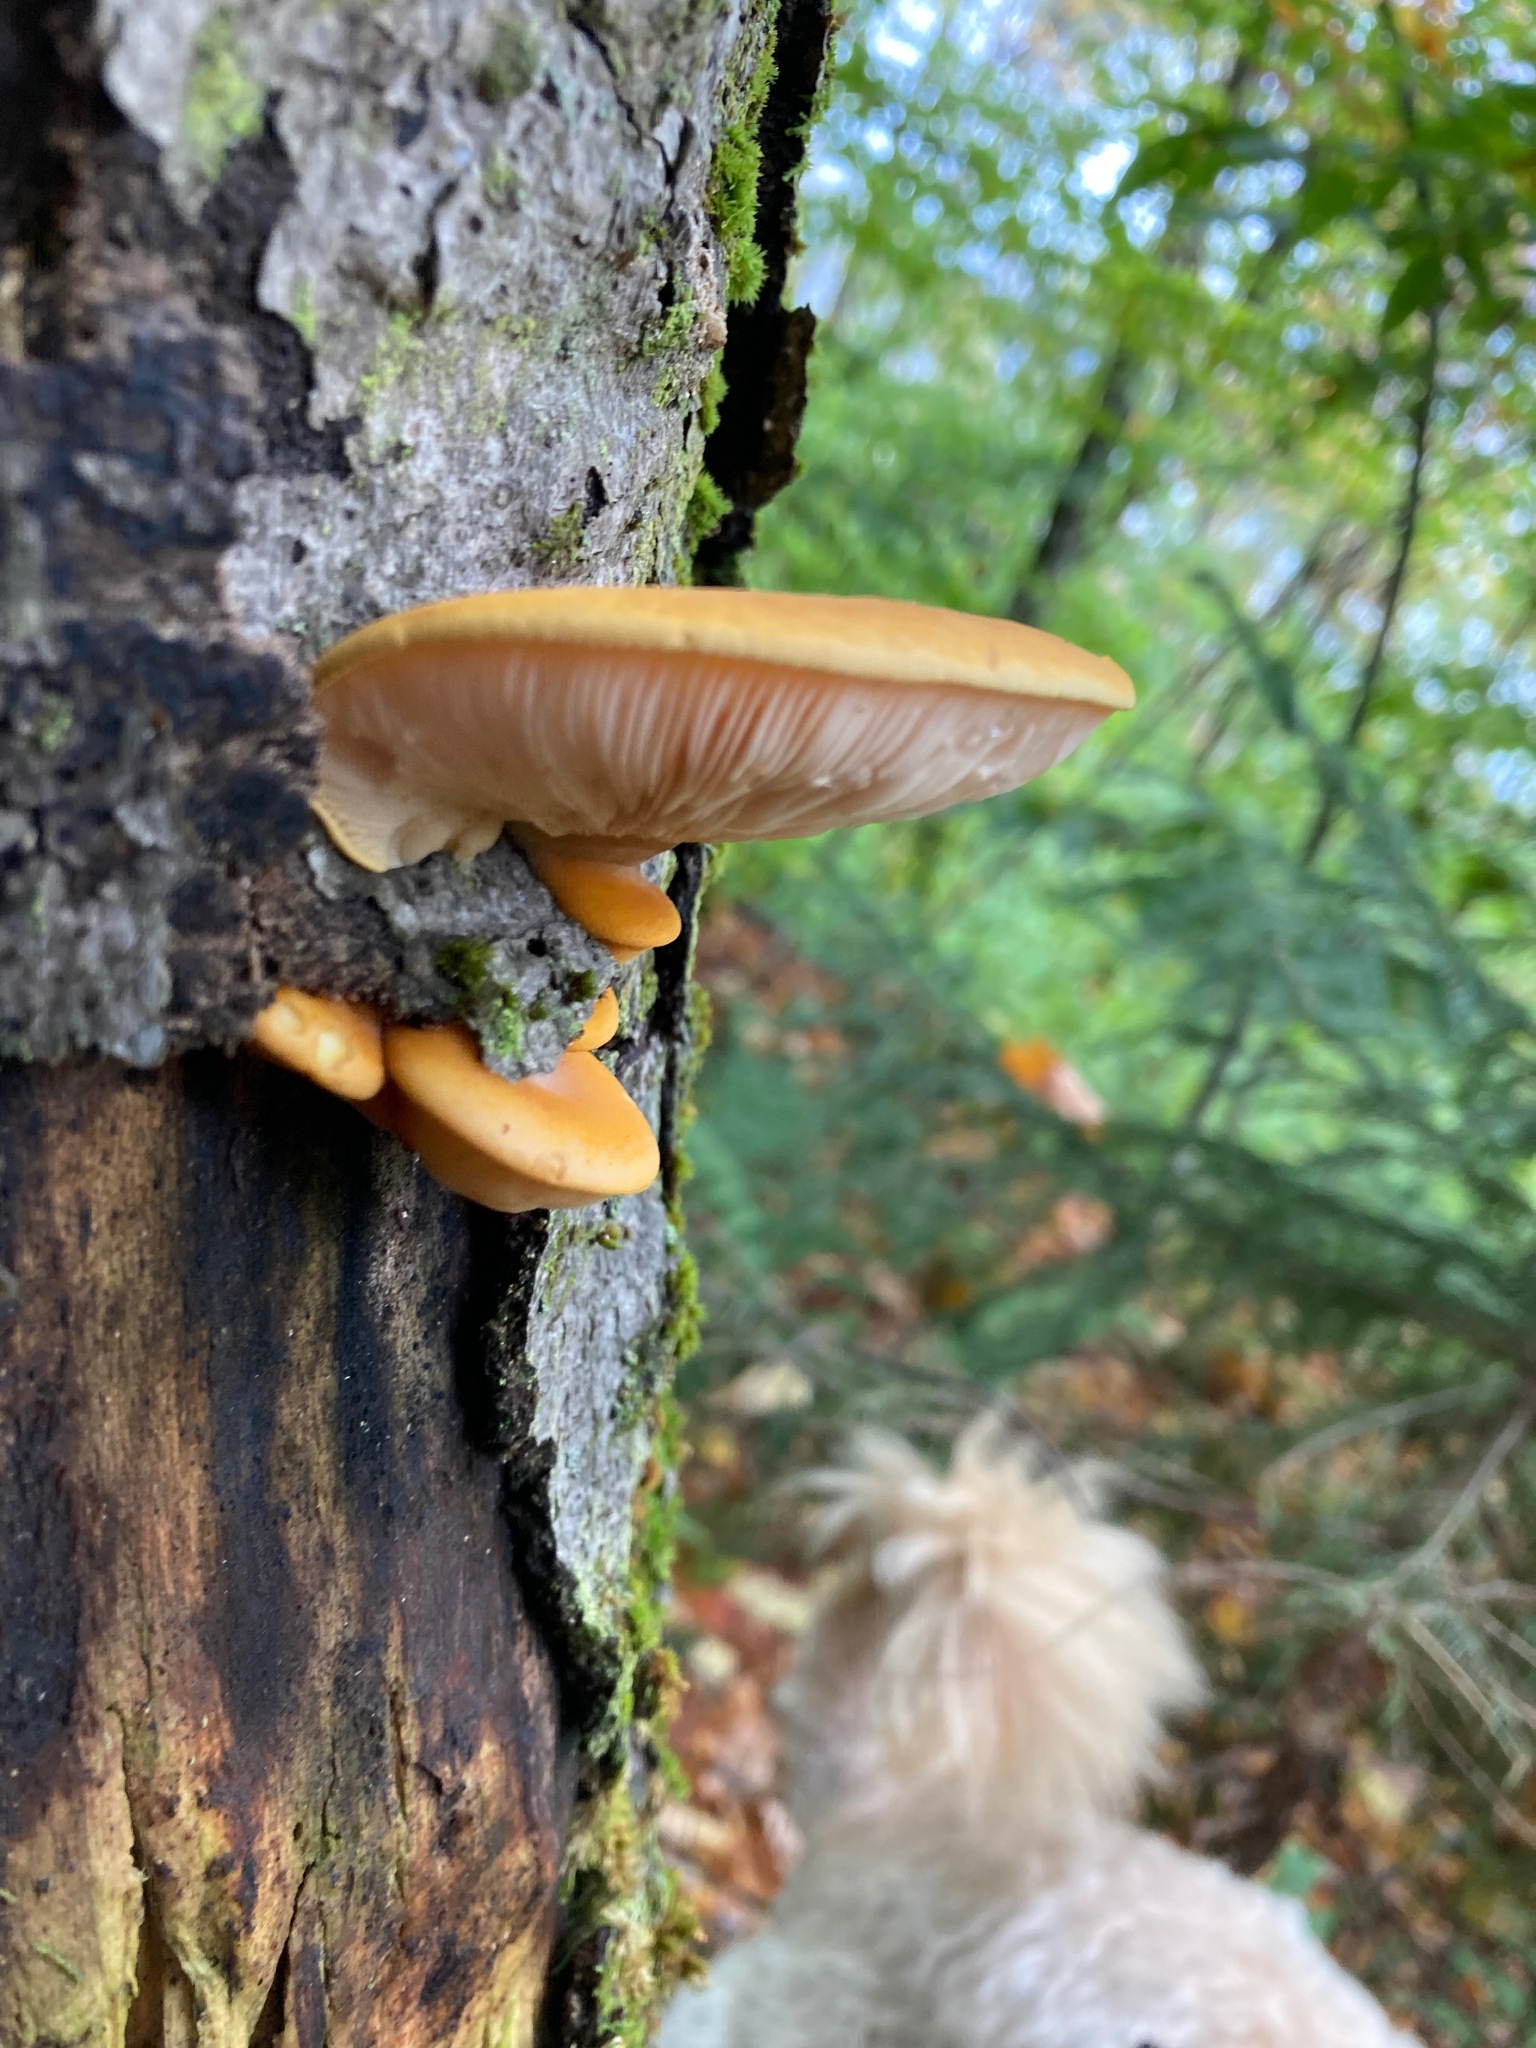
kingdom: Fungi
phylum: Basidiomycota
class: Agaricomycetes
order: Agaricales
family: Sarcomyxaceae
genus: Sarcomyxa
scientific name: Sarcomyxa serotina
